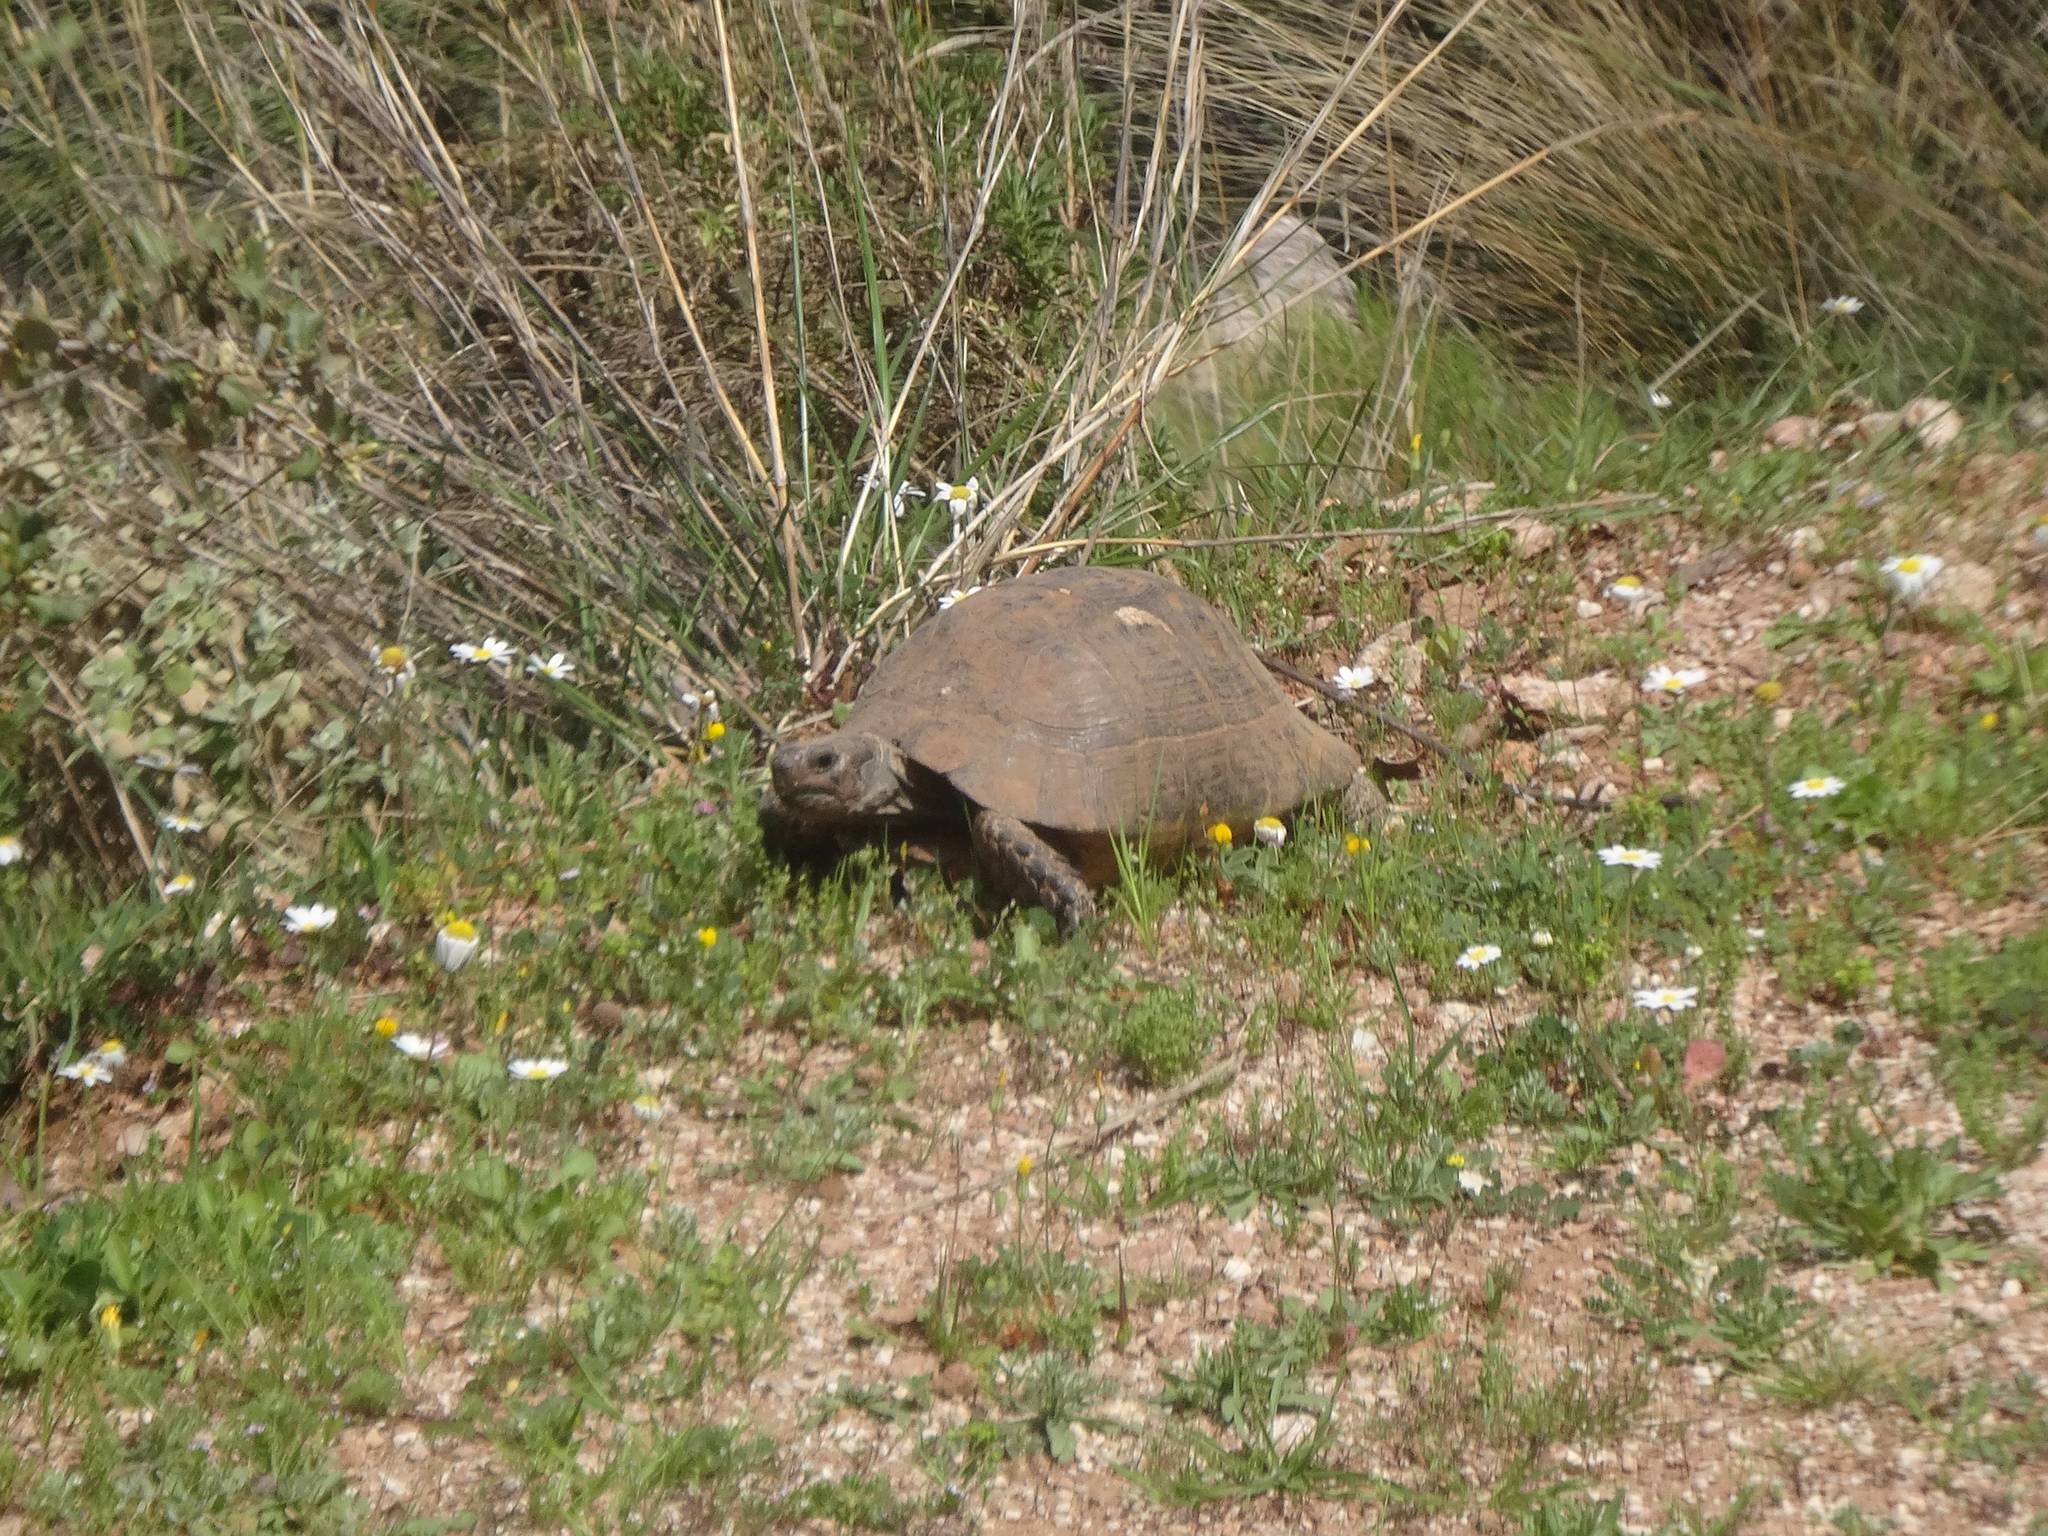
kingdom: Animalia
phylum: Chordata
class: Testudines
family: Testudinidae
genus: Testudo
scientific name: Testudo graeca
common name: Common tortoise
